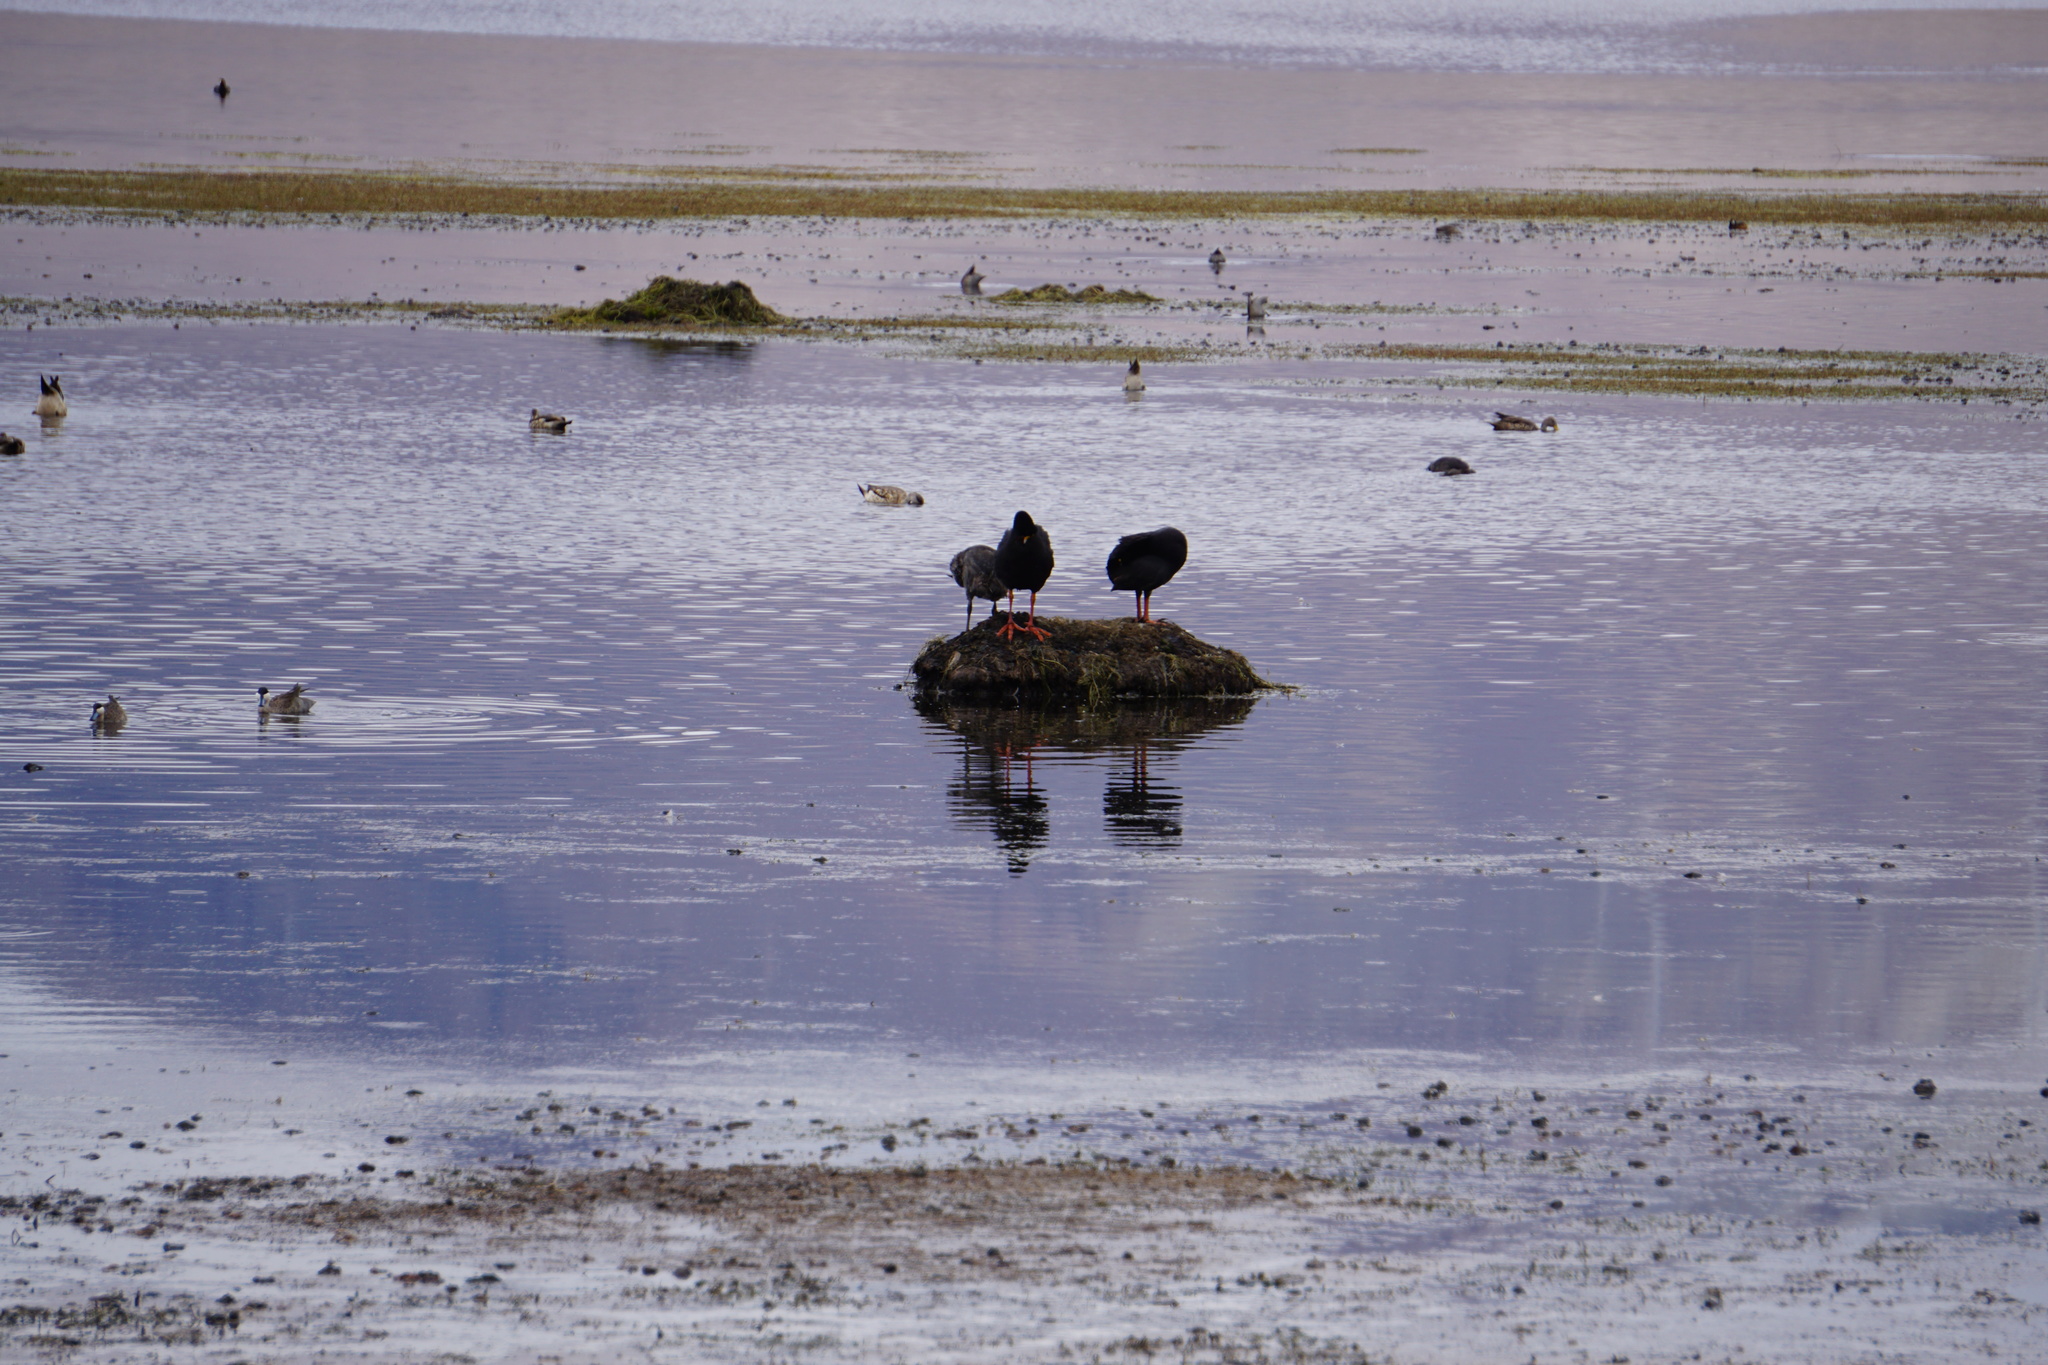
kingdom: Animalia
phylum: Chordata
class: Aves
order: Gruiformes
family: Rallidae
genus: Fulica
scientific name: Fulica gigantea
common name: Giant coot
